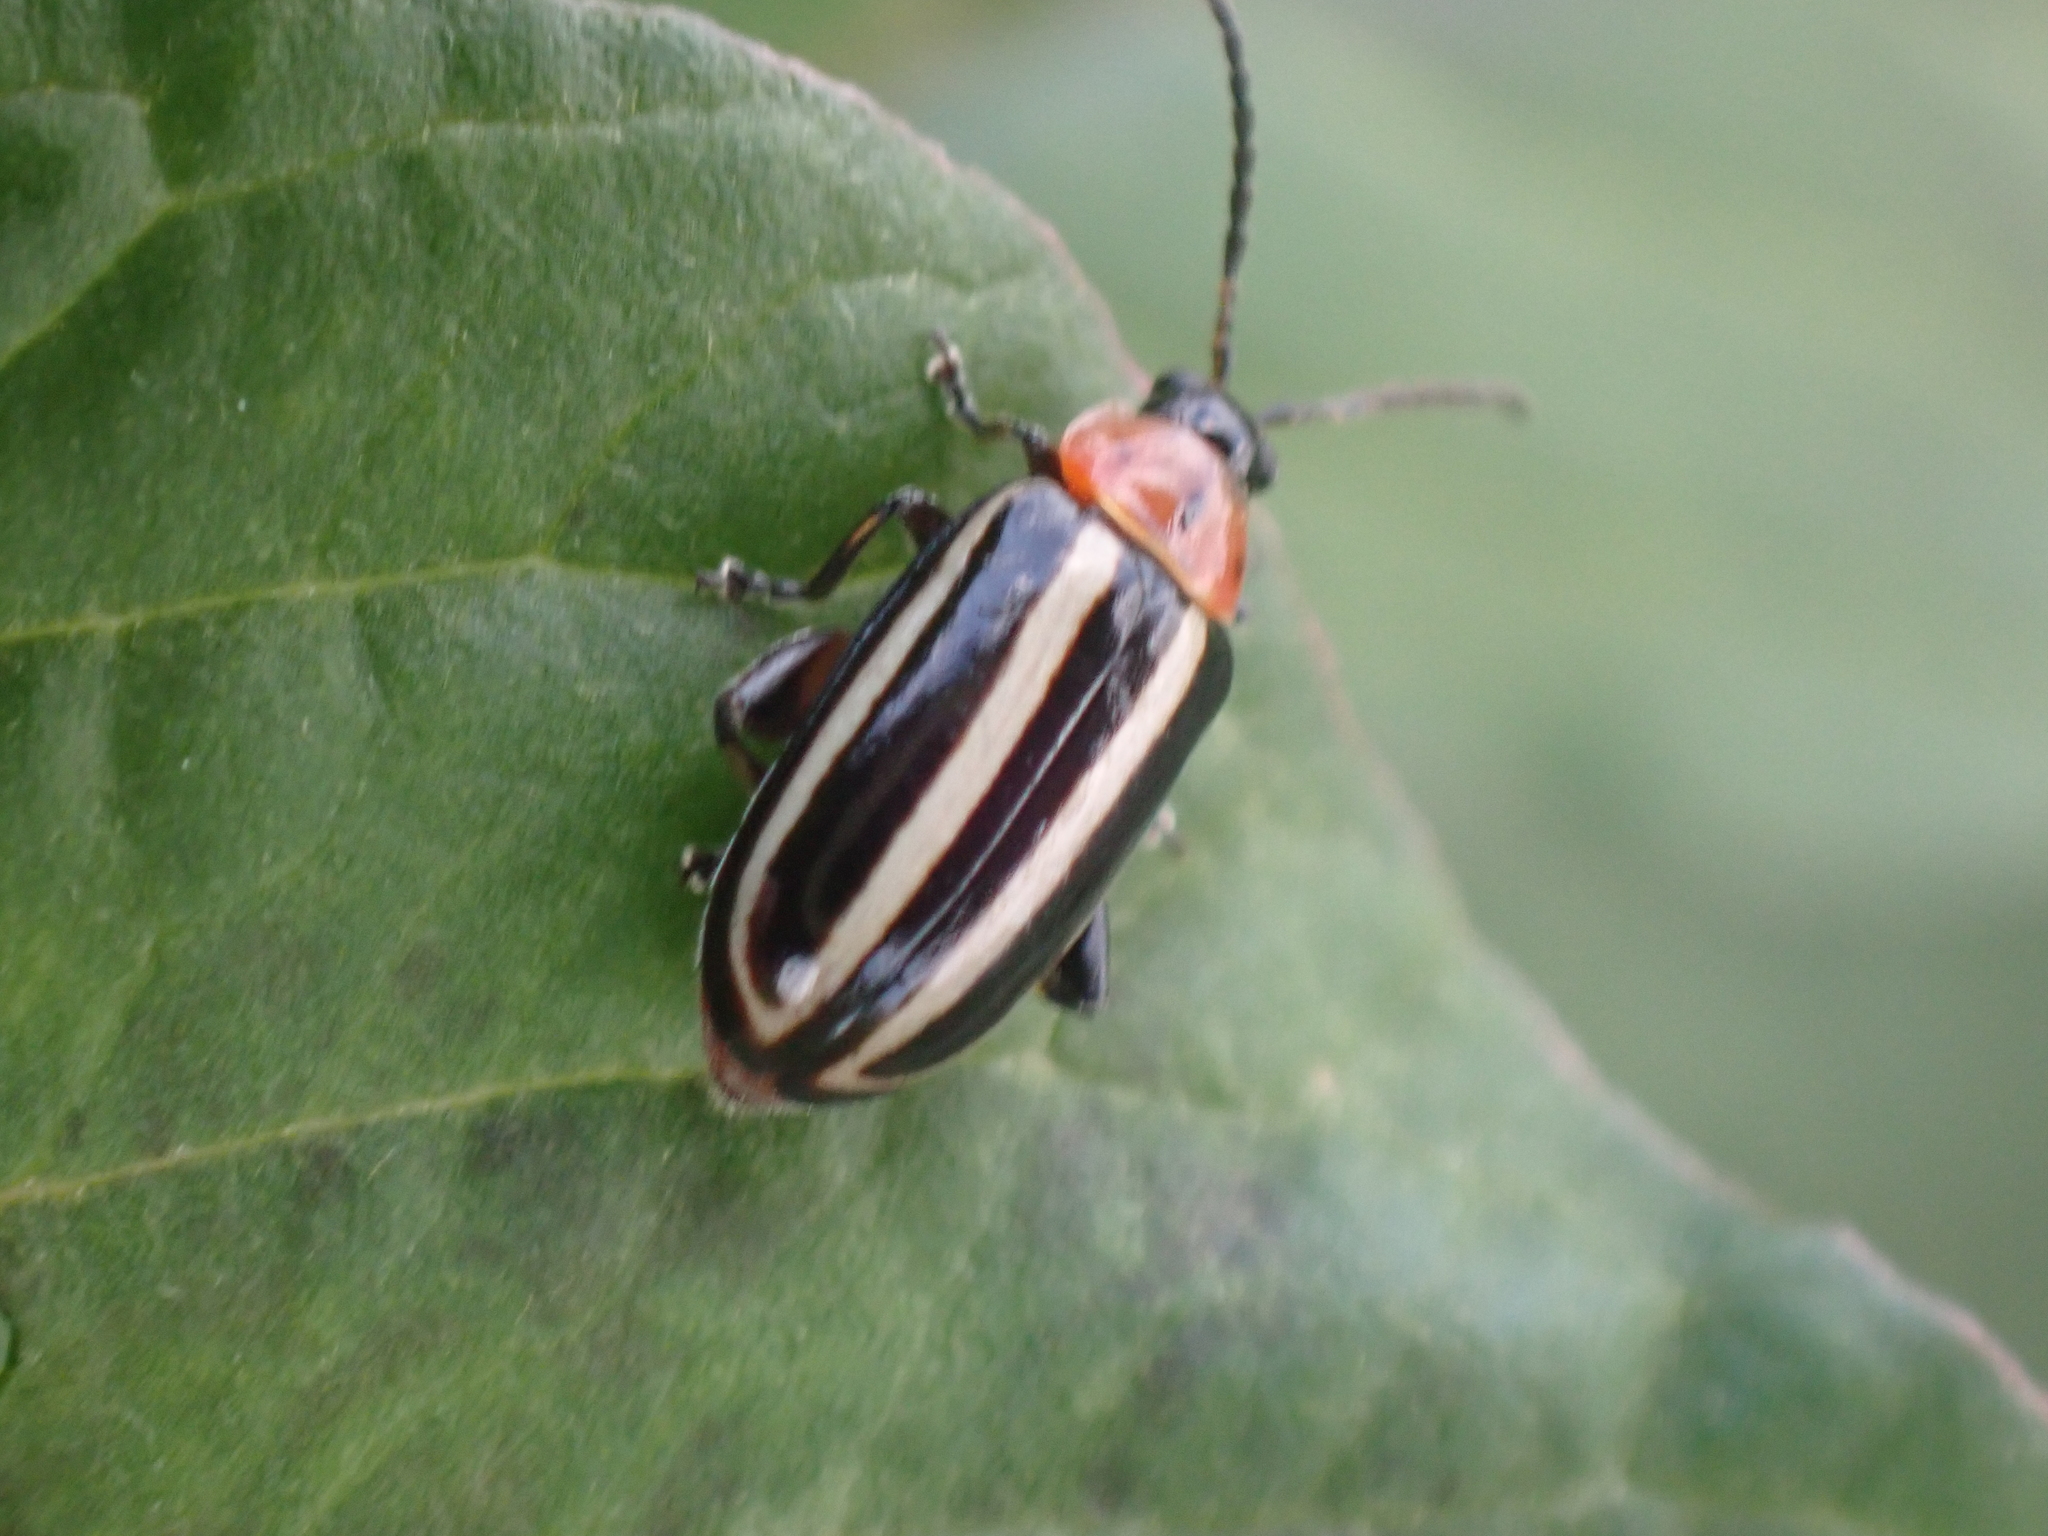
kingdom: Animalia
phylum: Arthropoda
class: Insecta
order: Coleoptera
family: Chrysomelidae
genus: Disonycha
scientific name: Disonycha glabrata
